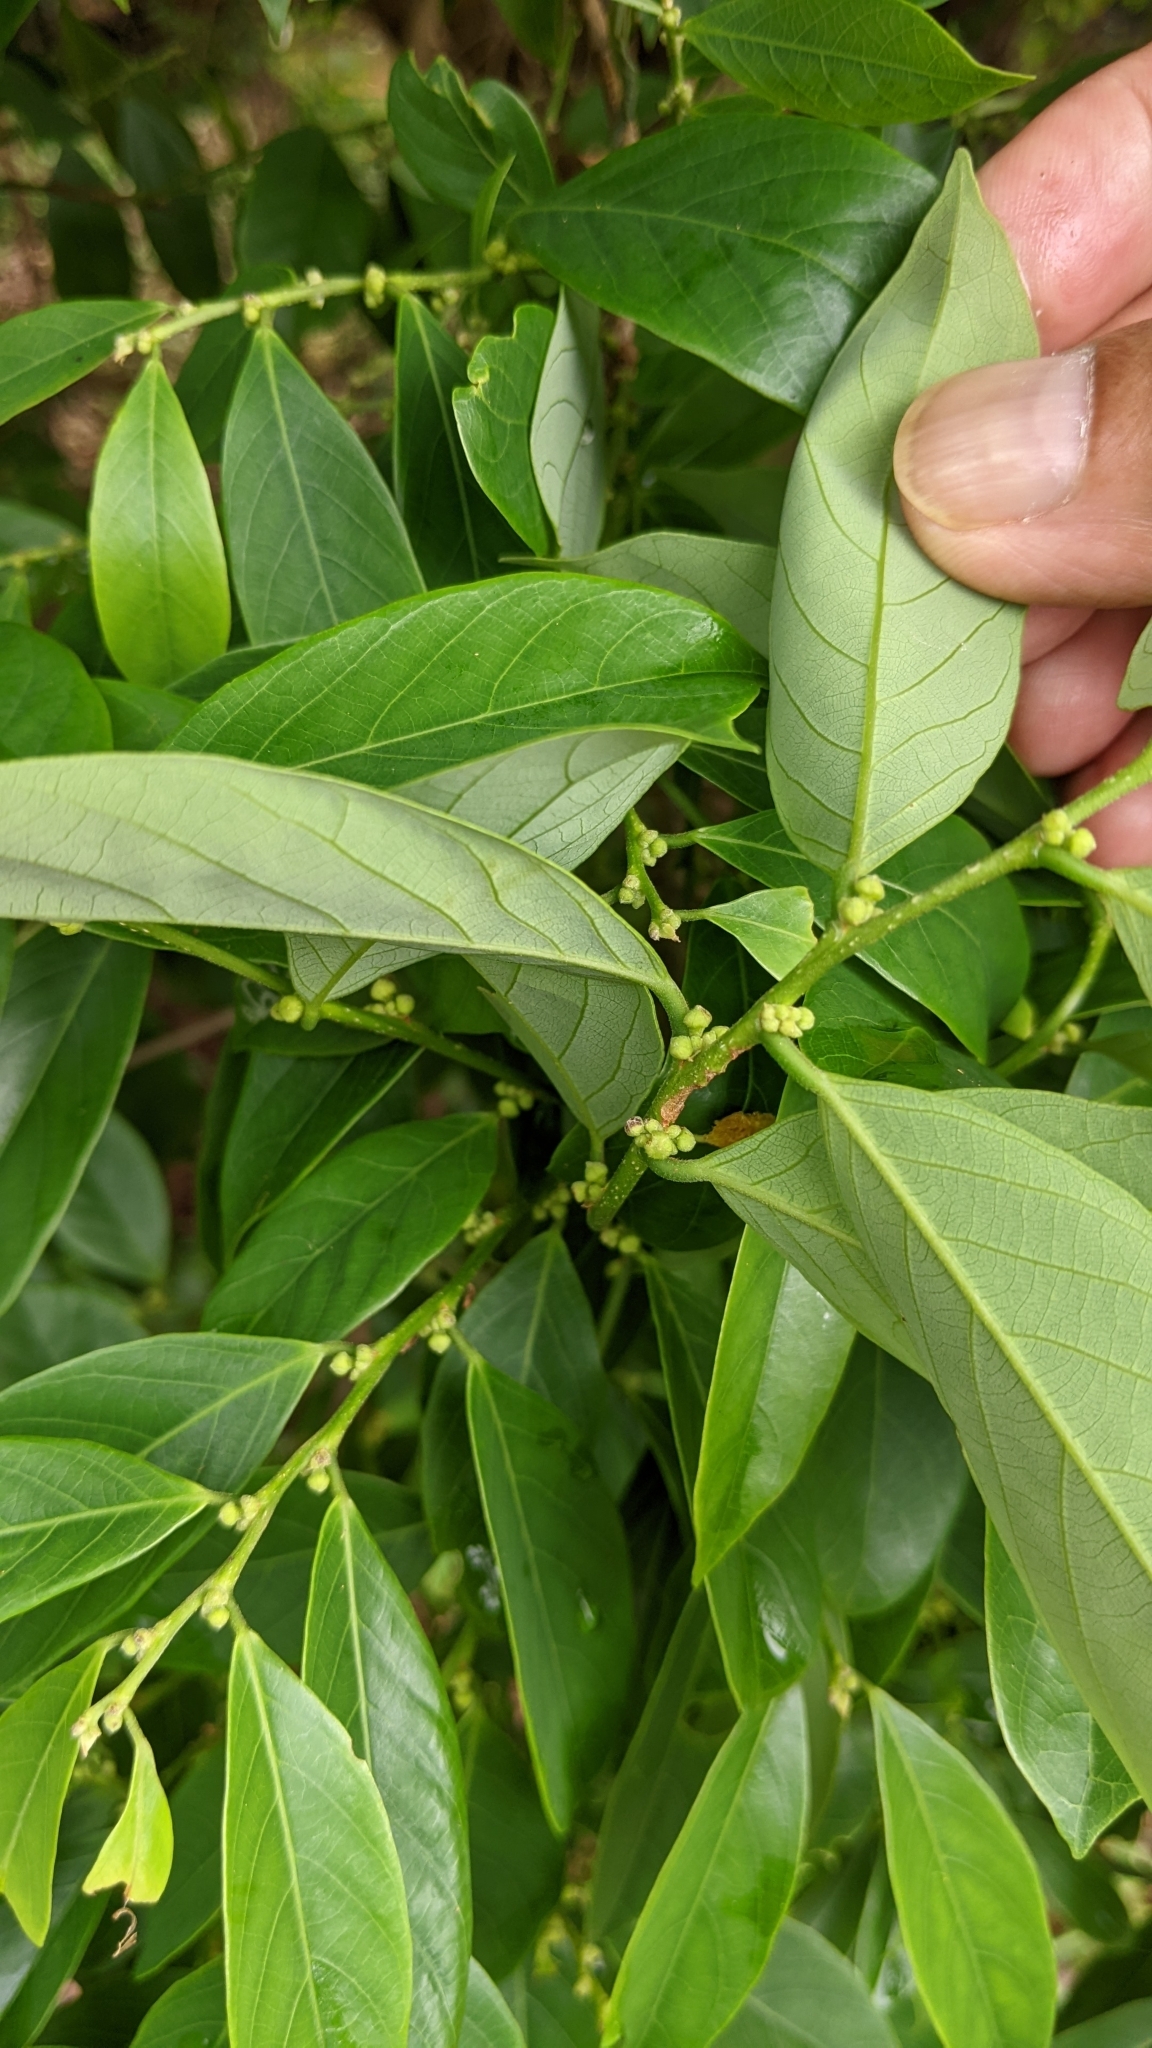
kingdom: Plantae
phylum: Tracheophyta
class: Magnoliopsida
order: Malpighiales
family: Phyllanthaceae
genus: Bridelia
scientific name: Bridelia balansae
